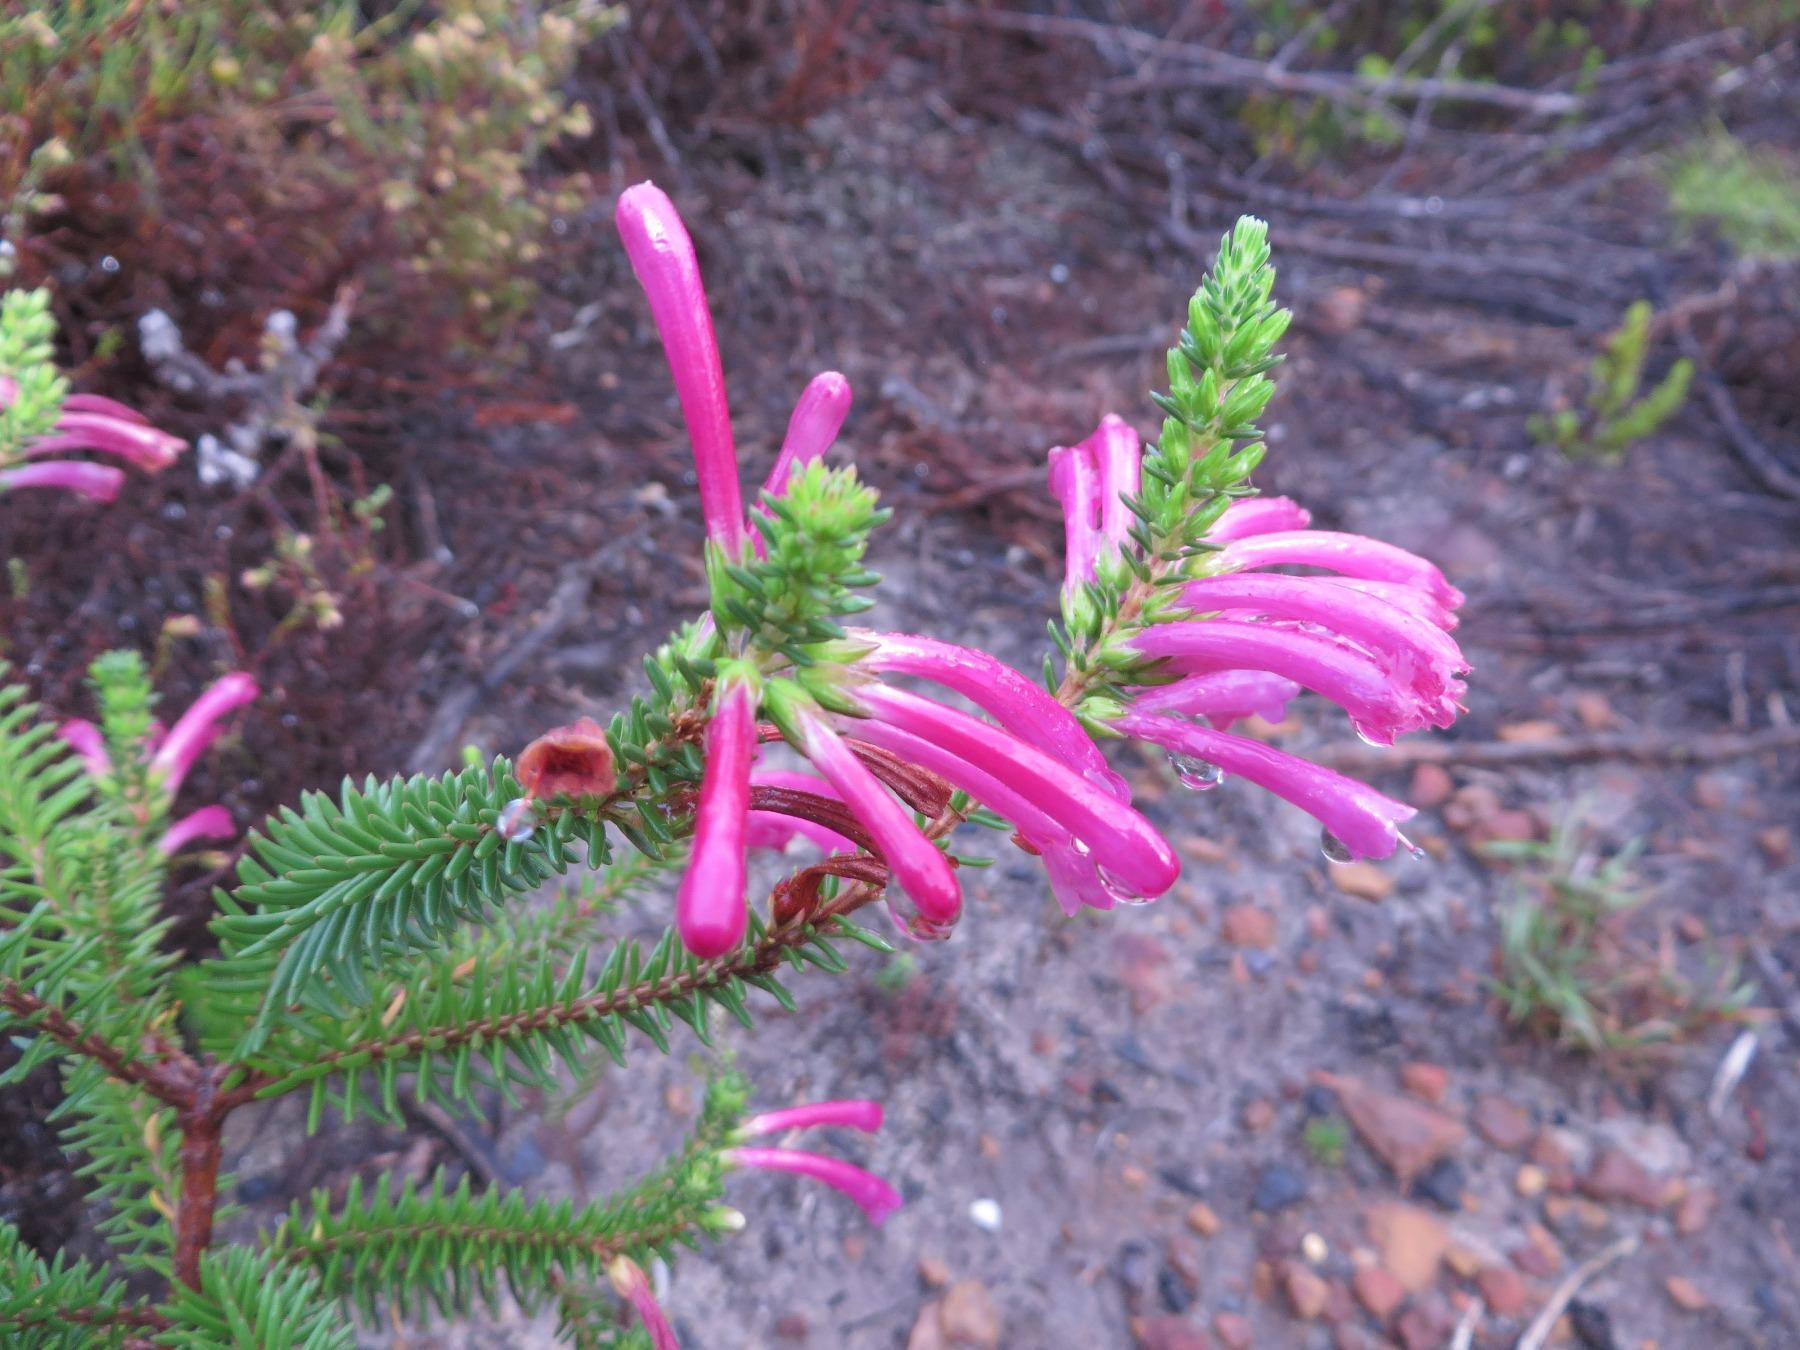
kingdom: Plantae
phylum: Tracheophyta
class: Magnoliopsida
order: Ericales
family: Ericaceae
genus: Erica
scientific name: Erica abietina
